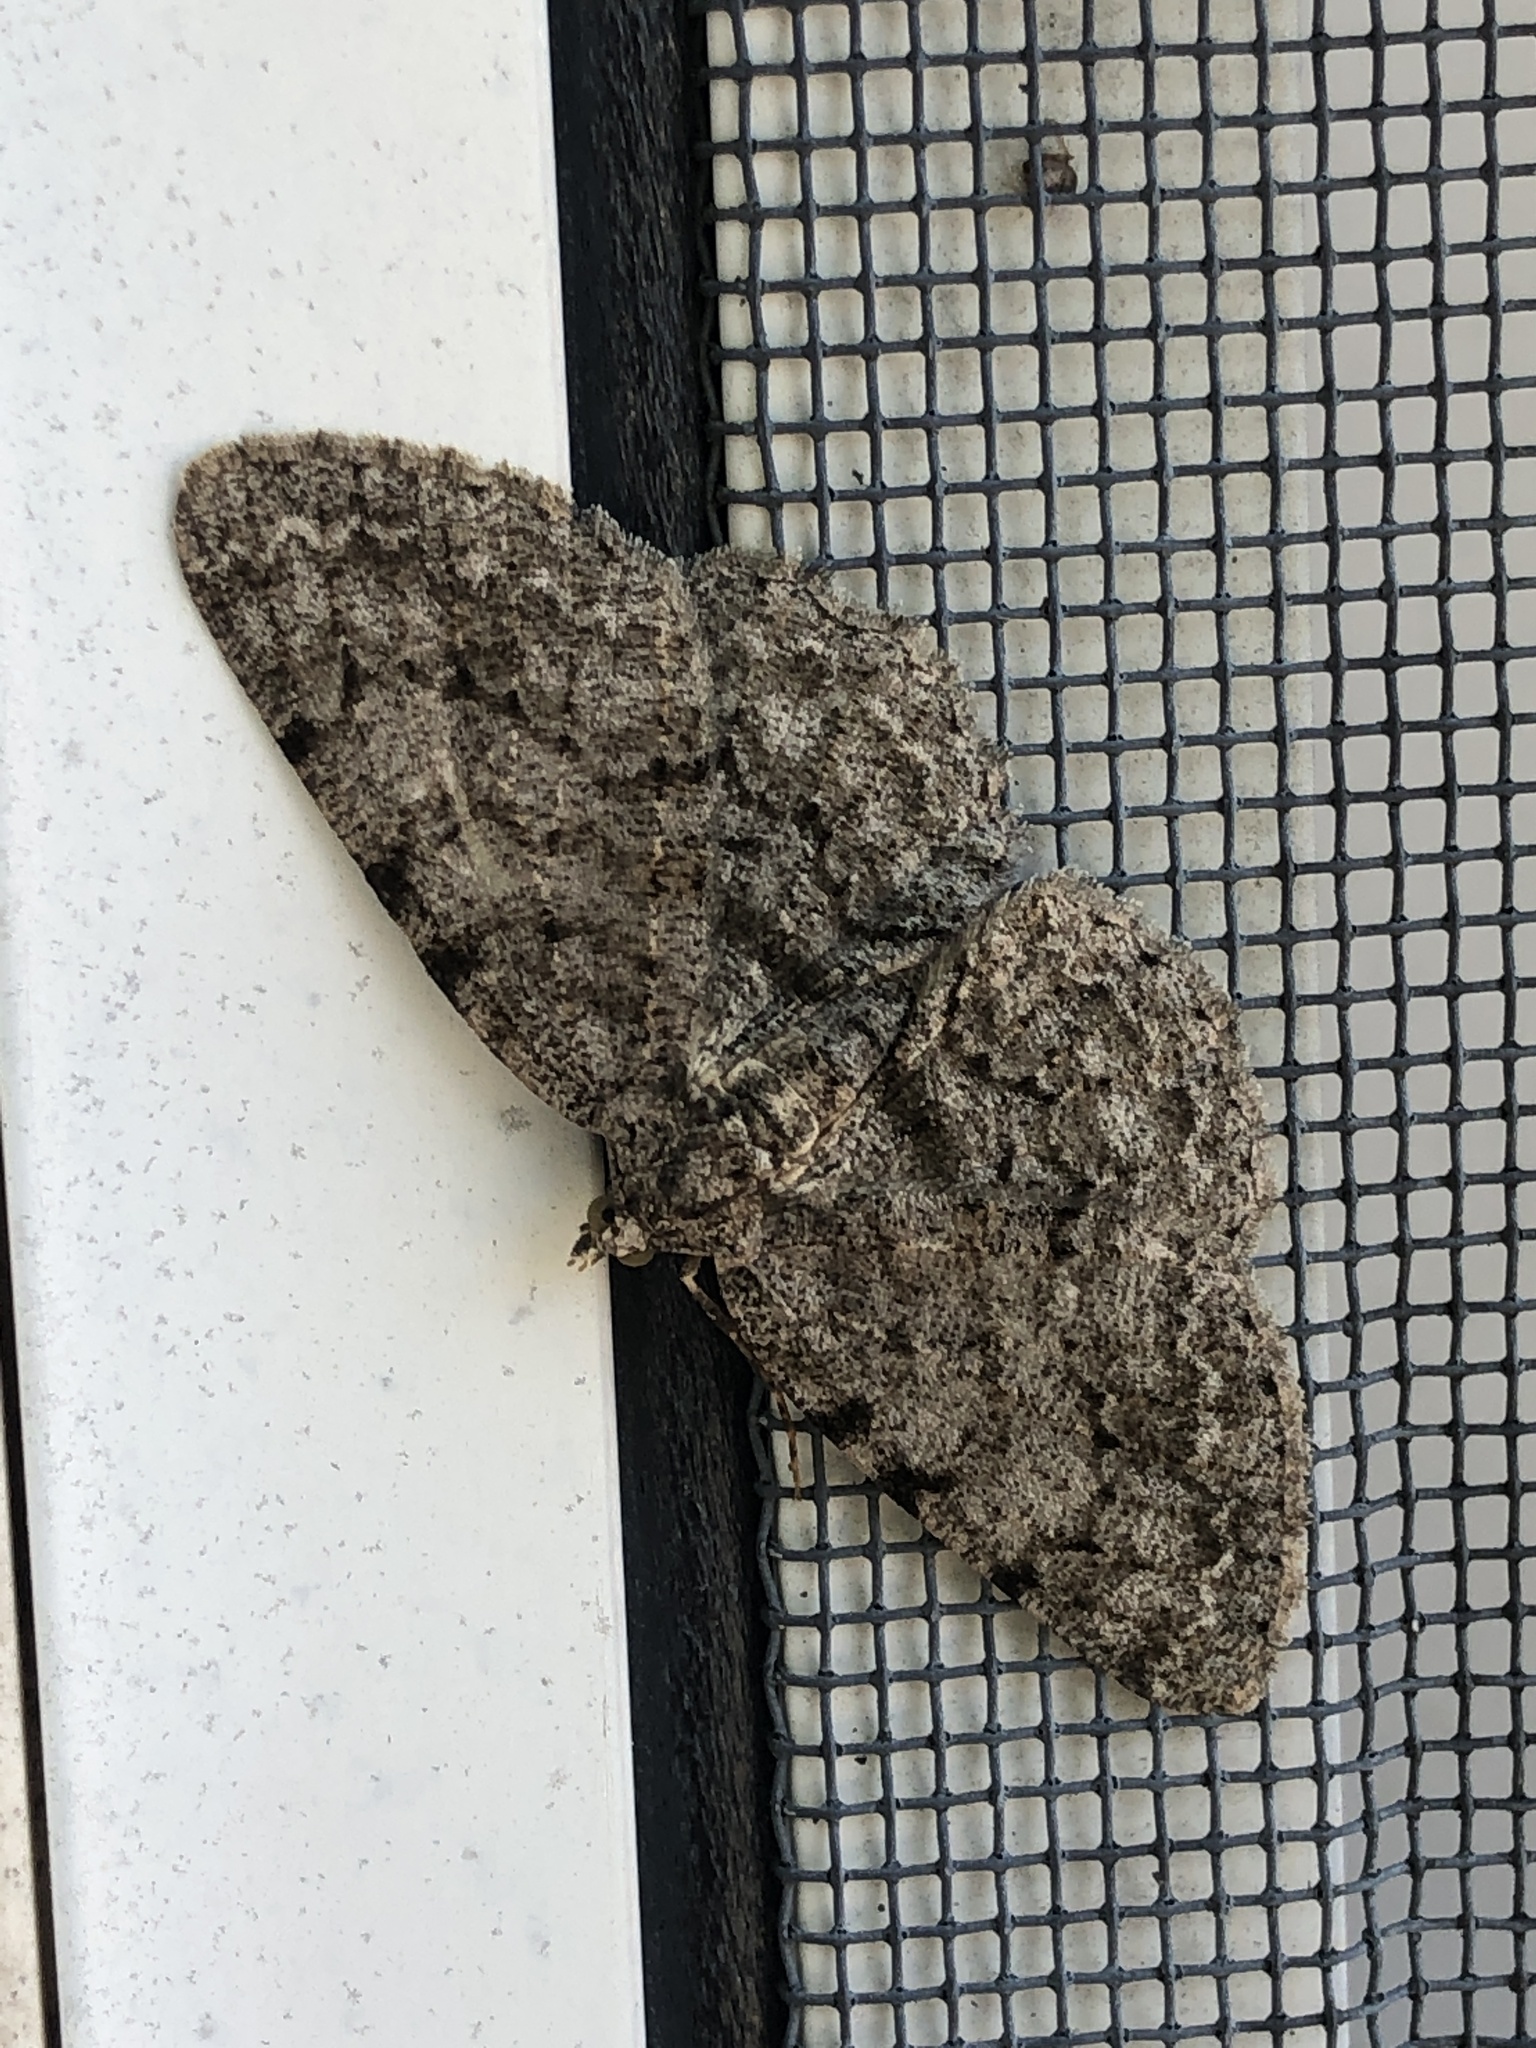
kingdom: Animalia
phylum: Arthropoda
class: Insecta
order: Lepidoptera
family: Geometridae
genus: Protoboarmia
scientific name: Protoboarmia porcelaria
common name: Porcelain gray
